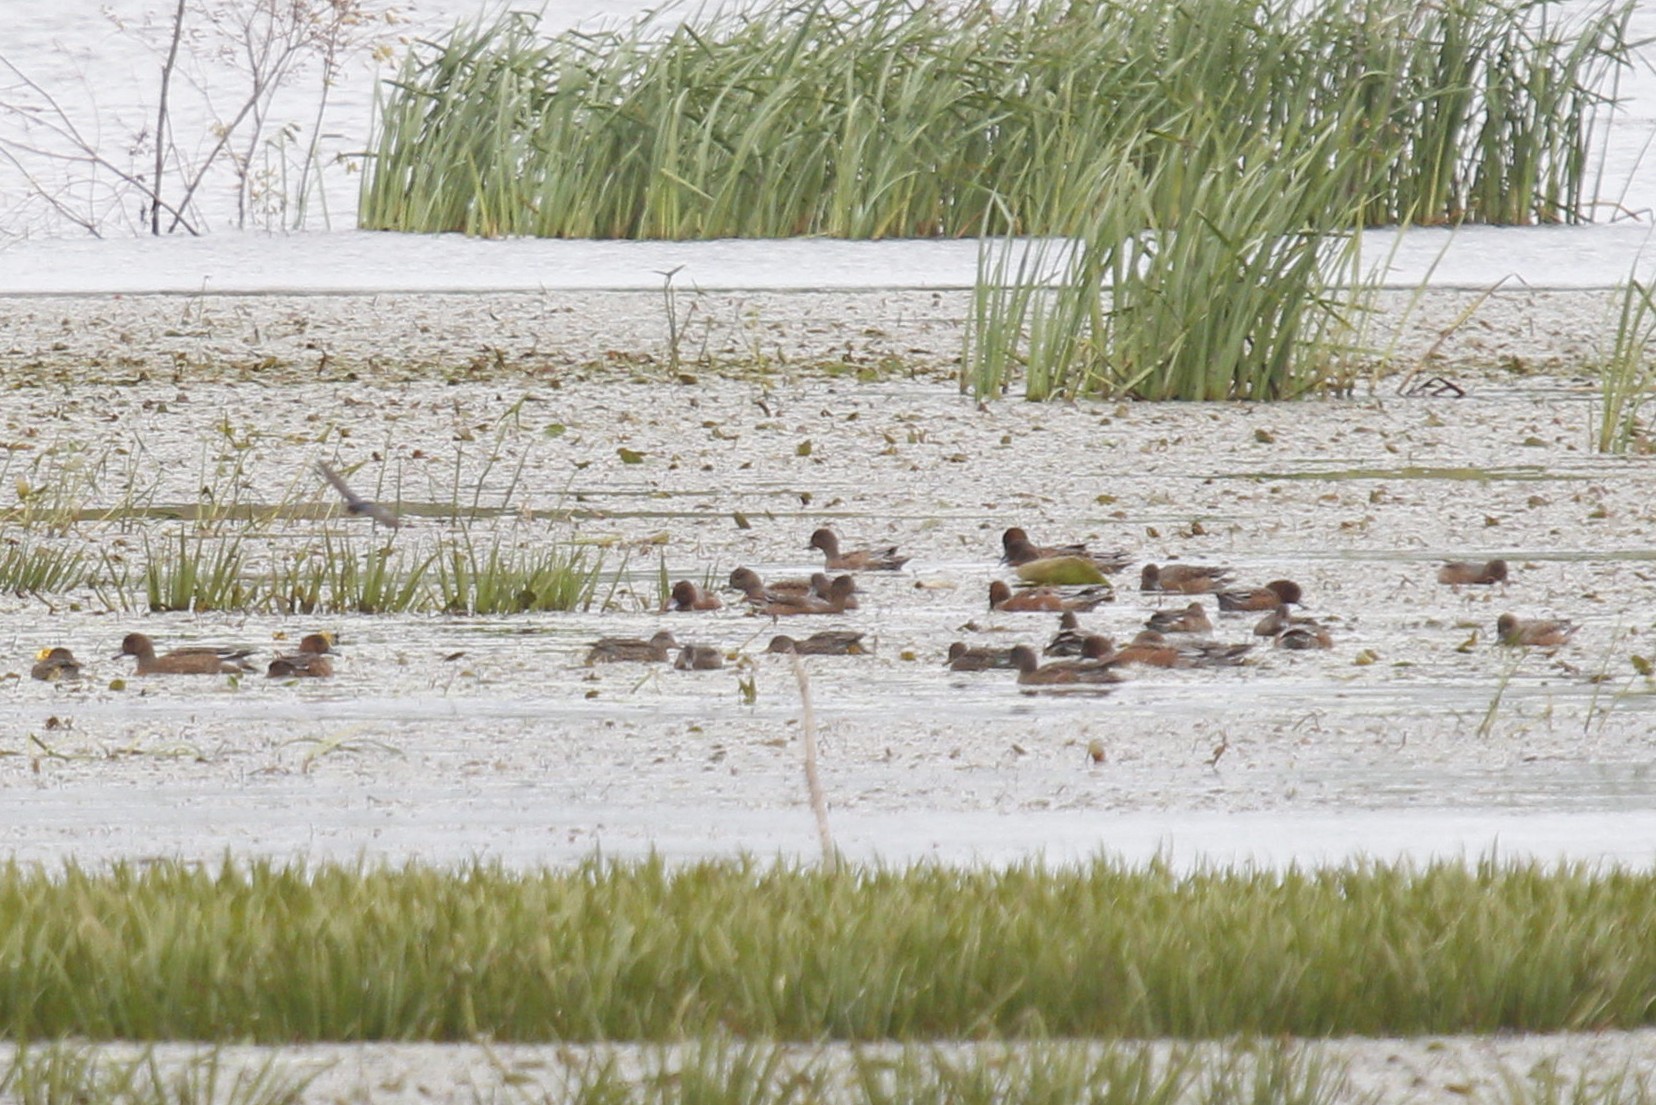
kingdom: Animalia
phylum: Chordata
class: Aves
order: Anseriformes
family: Anatidae
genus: Mareca
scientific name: Mareca penelope
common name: Eurasian wigeon
